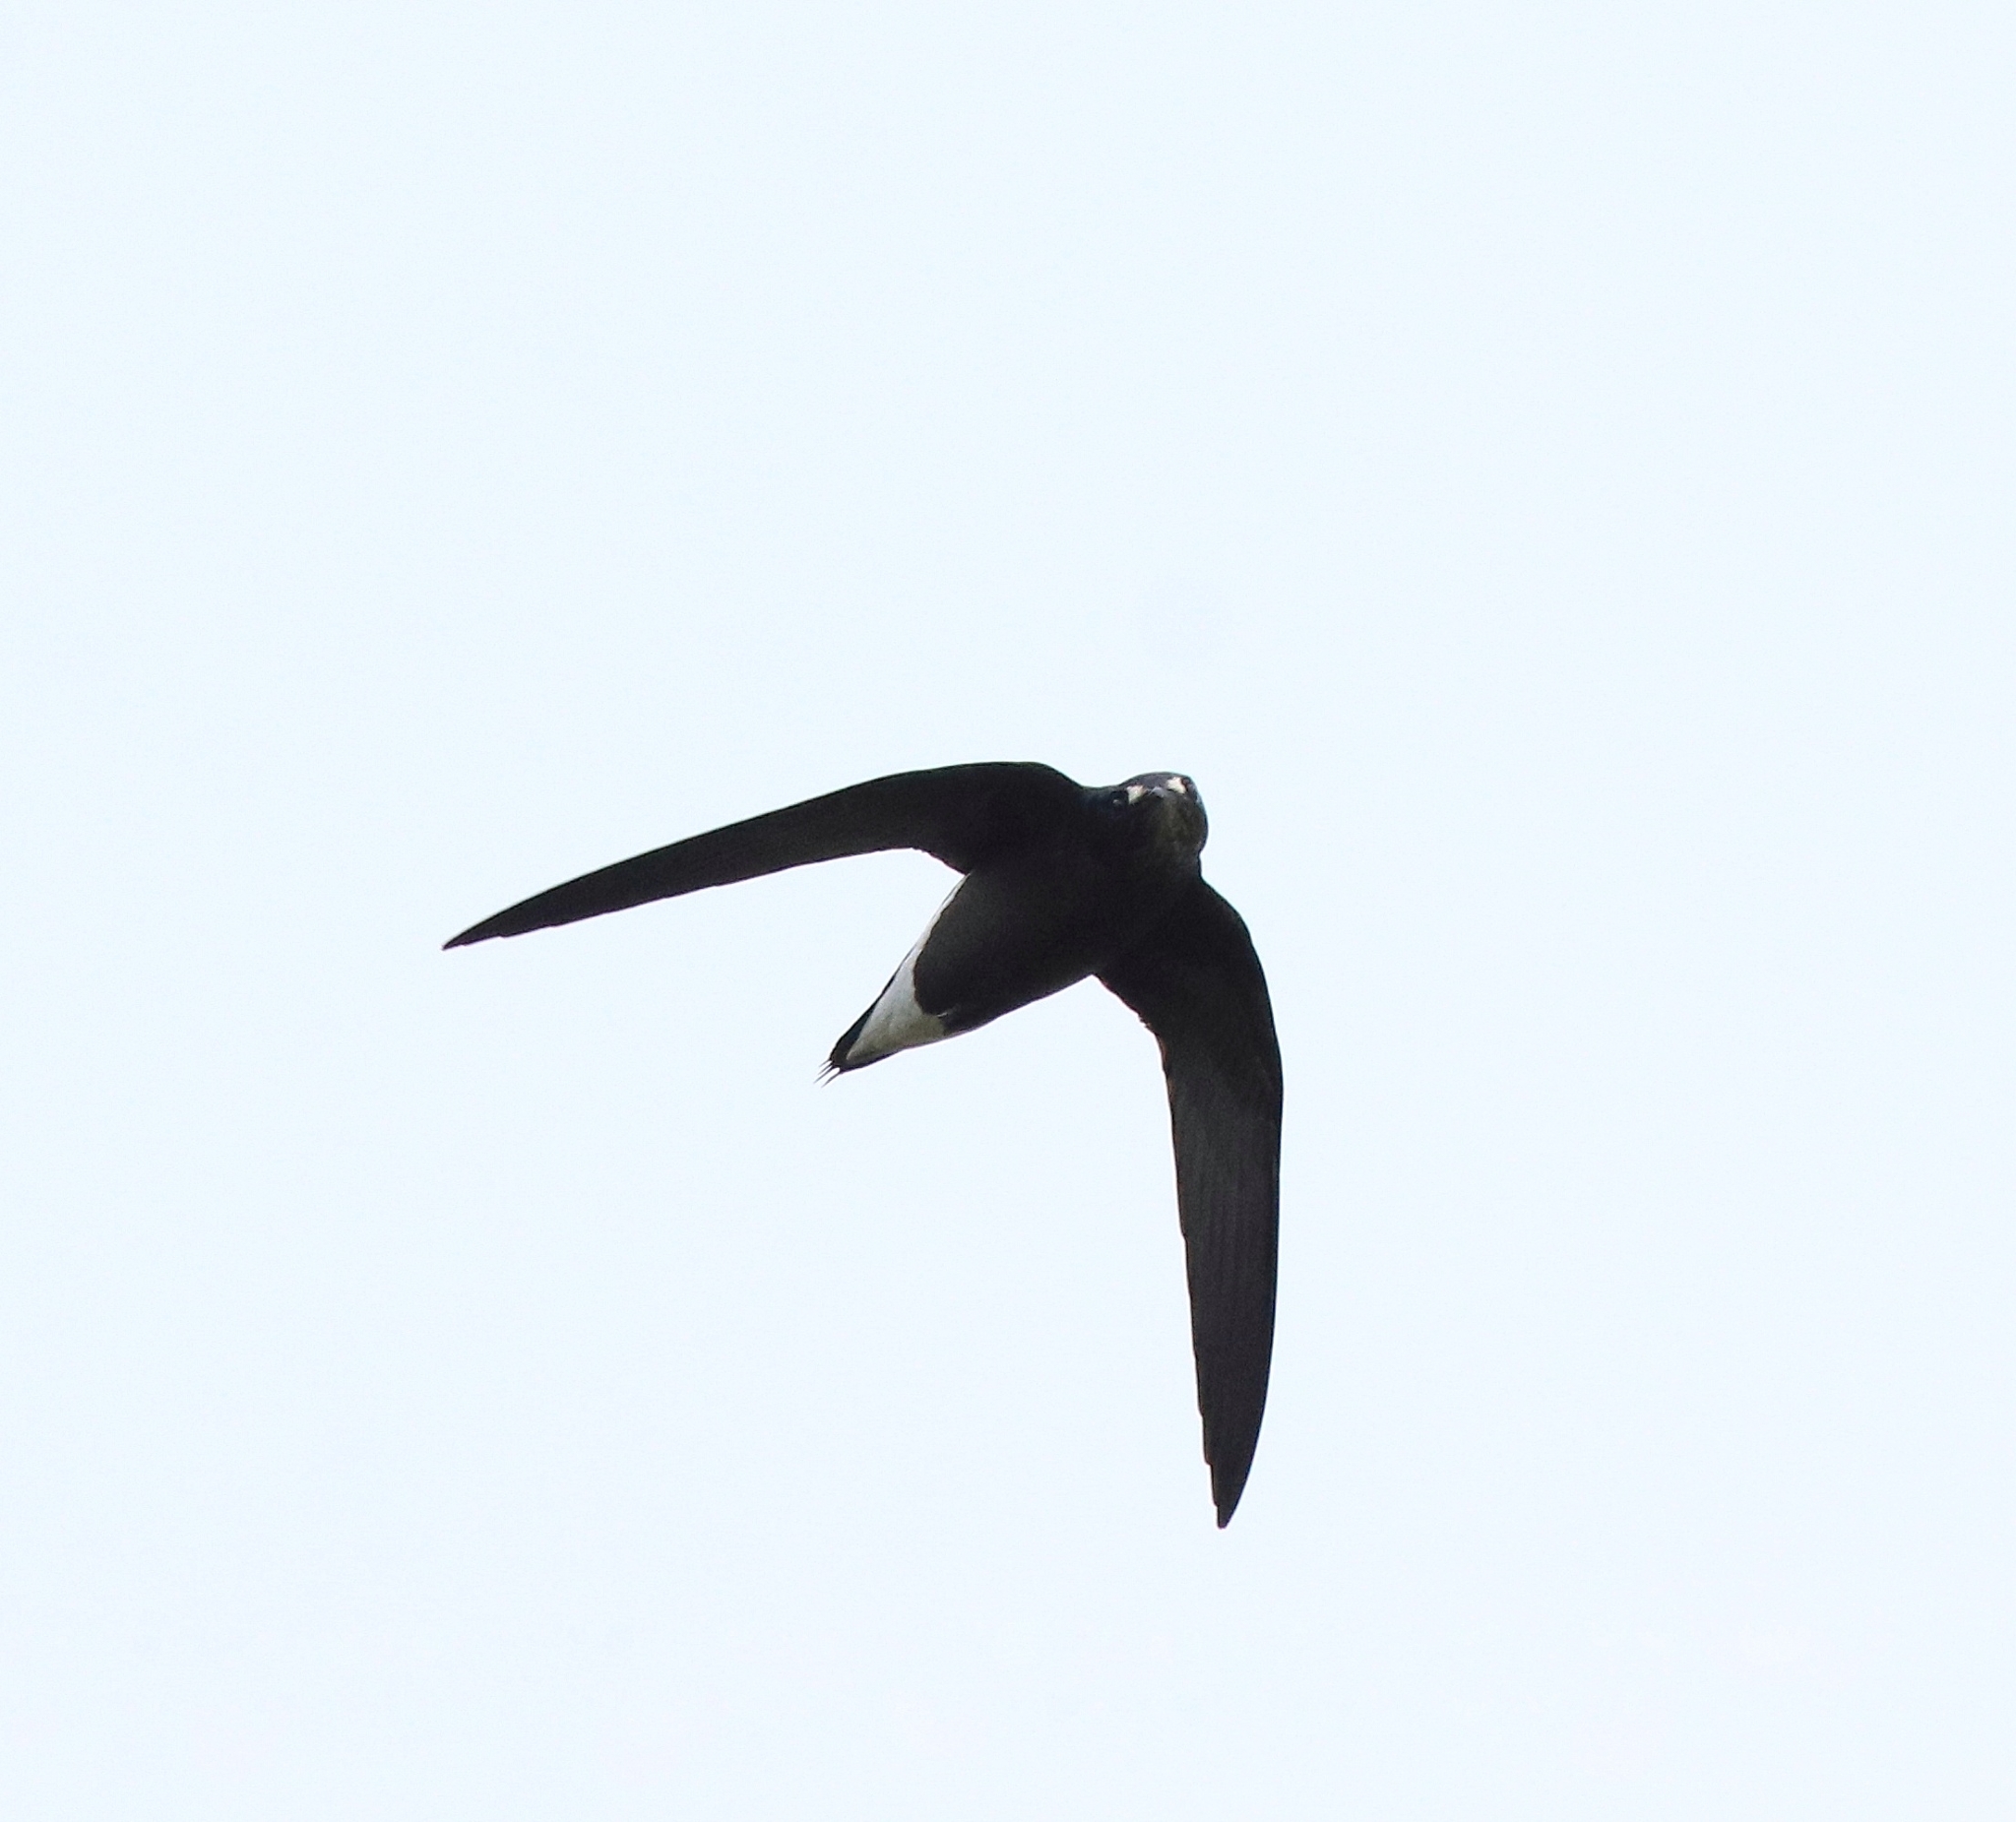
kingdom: Animalia
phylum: Chordata
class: Aves
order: Apodiformes
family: Apodidae
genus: Hirundapus
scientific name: Hirundapus giganteus
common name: Brown-backed needletail
